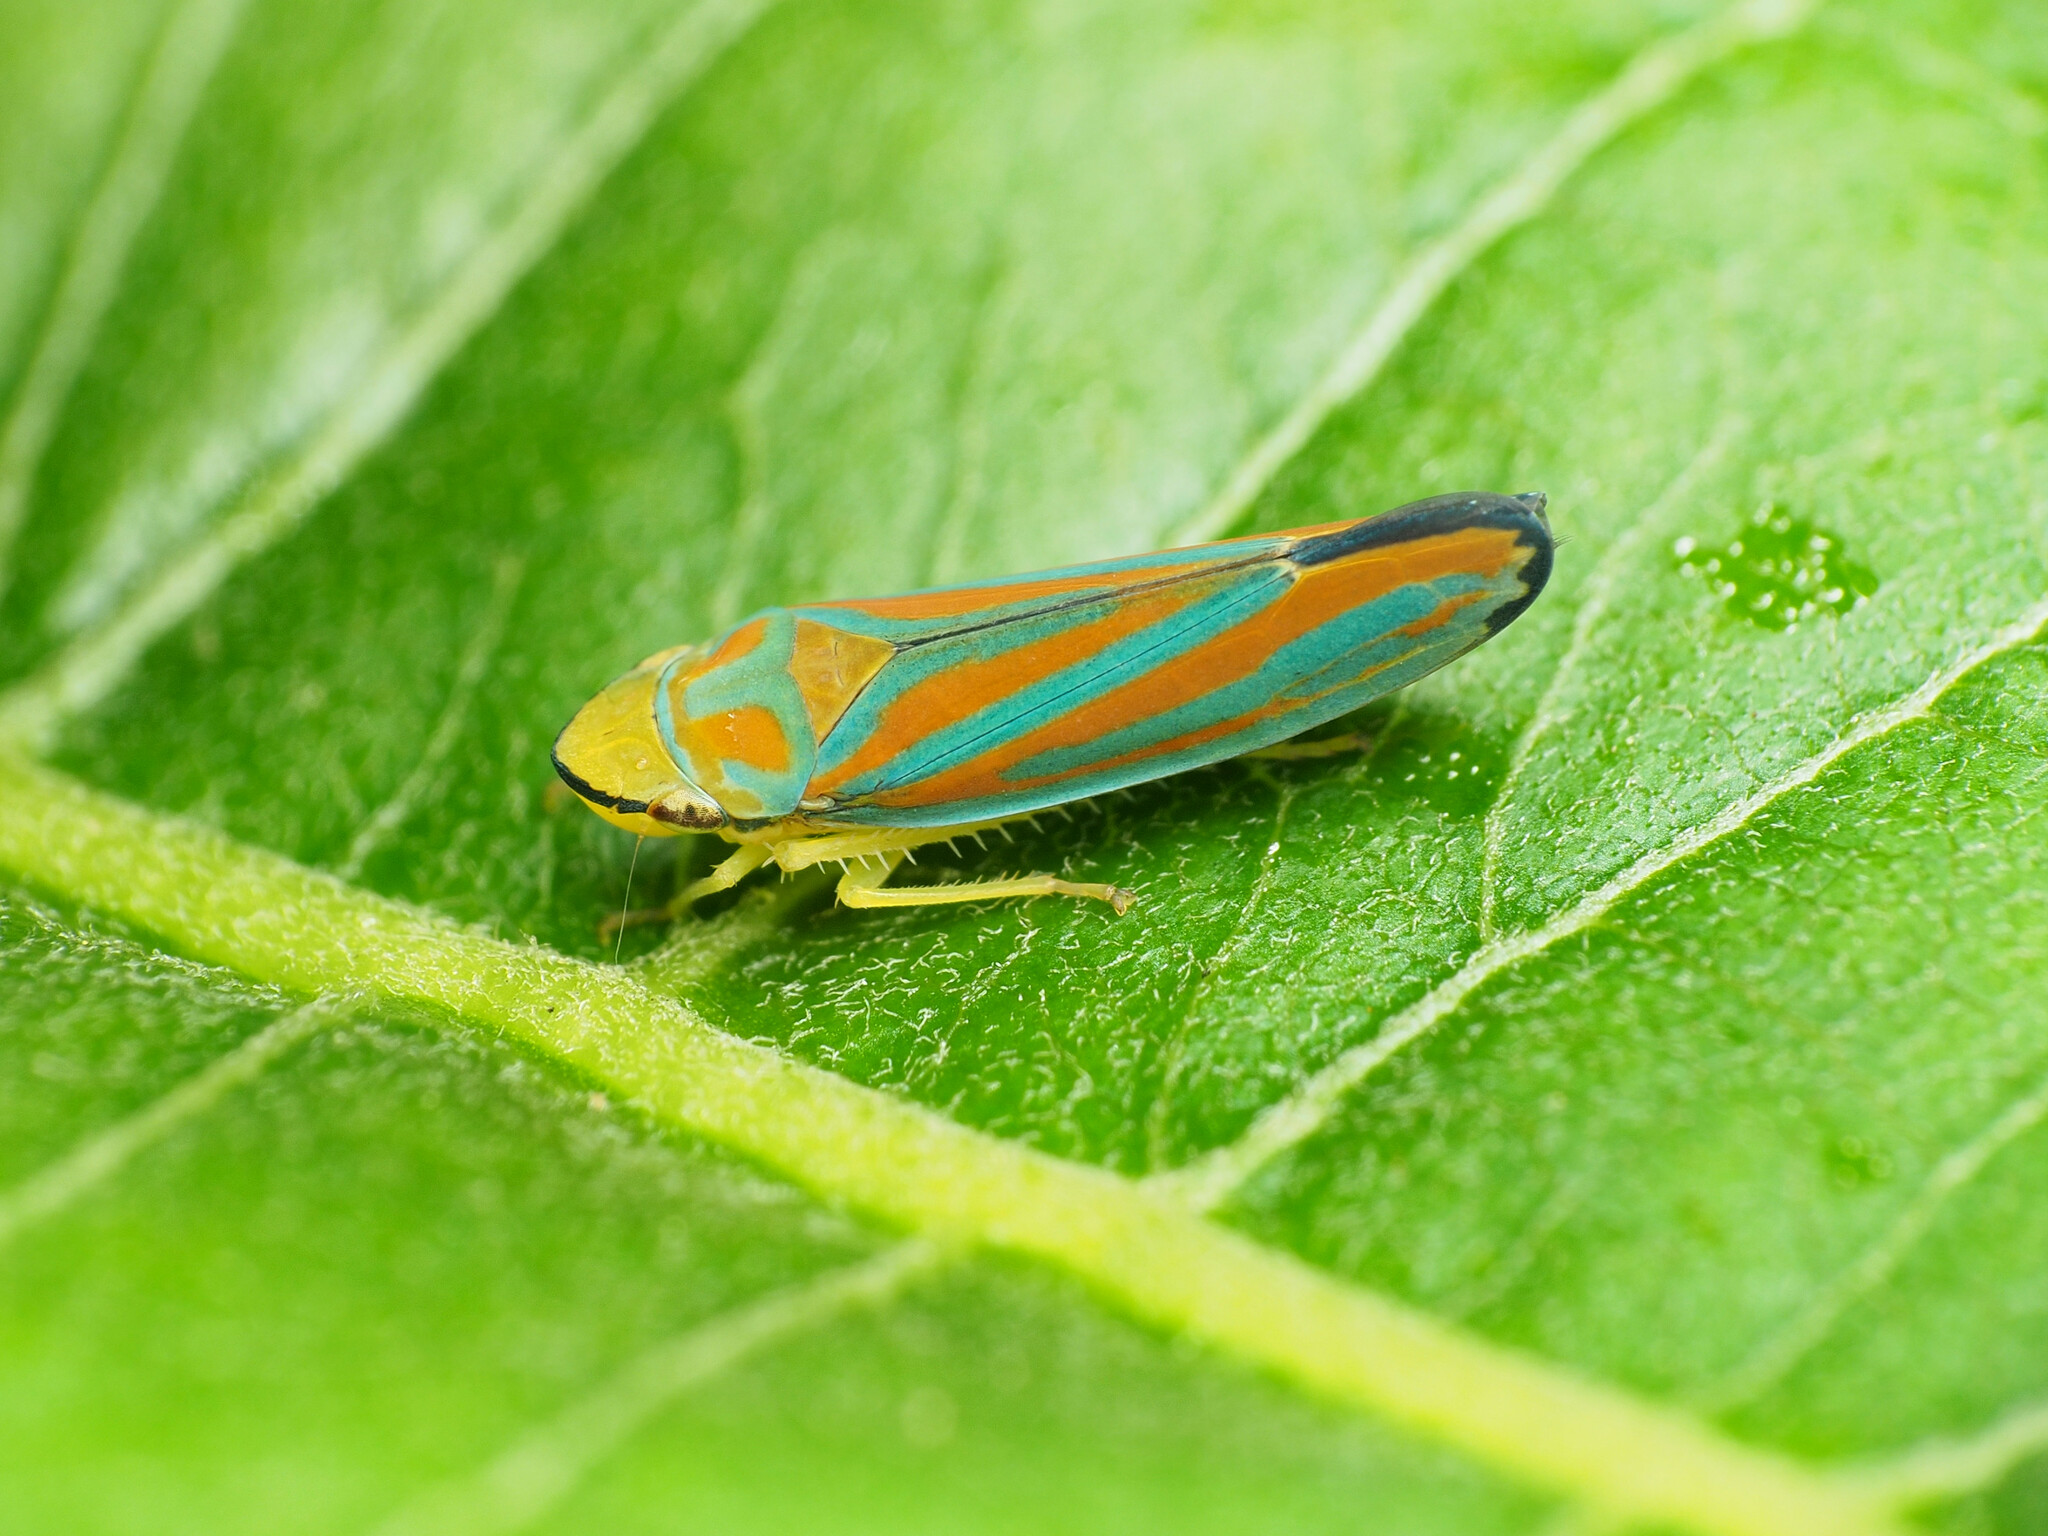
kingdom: Animalia
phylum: Arthropoda
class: Insecta
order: Hemiptera
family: Cicadellidae
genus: Graphocephala
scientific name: Graphocephala coccinea
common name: Candy-striped leafhopper
